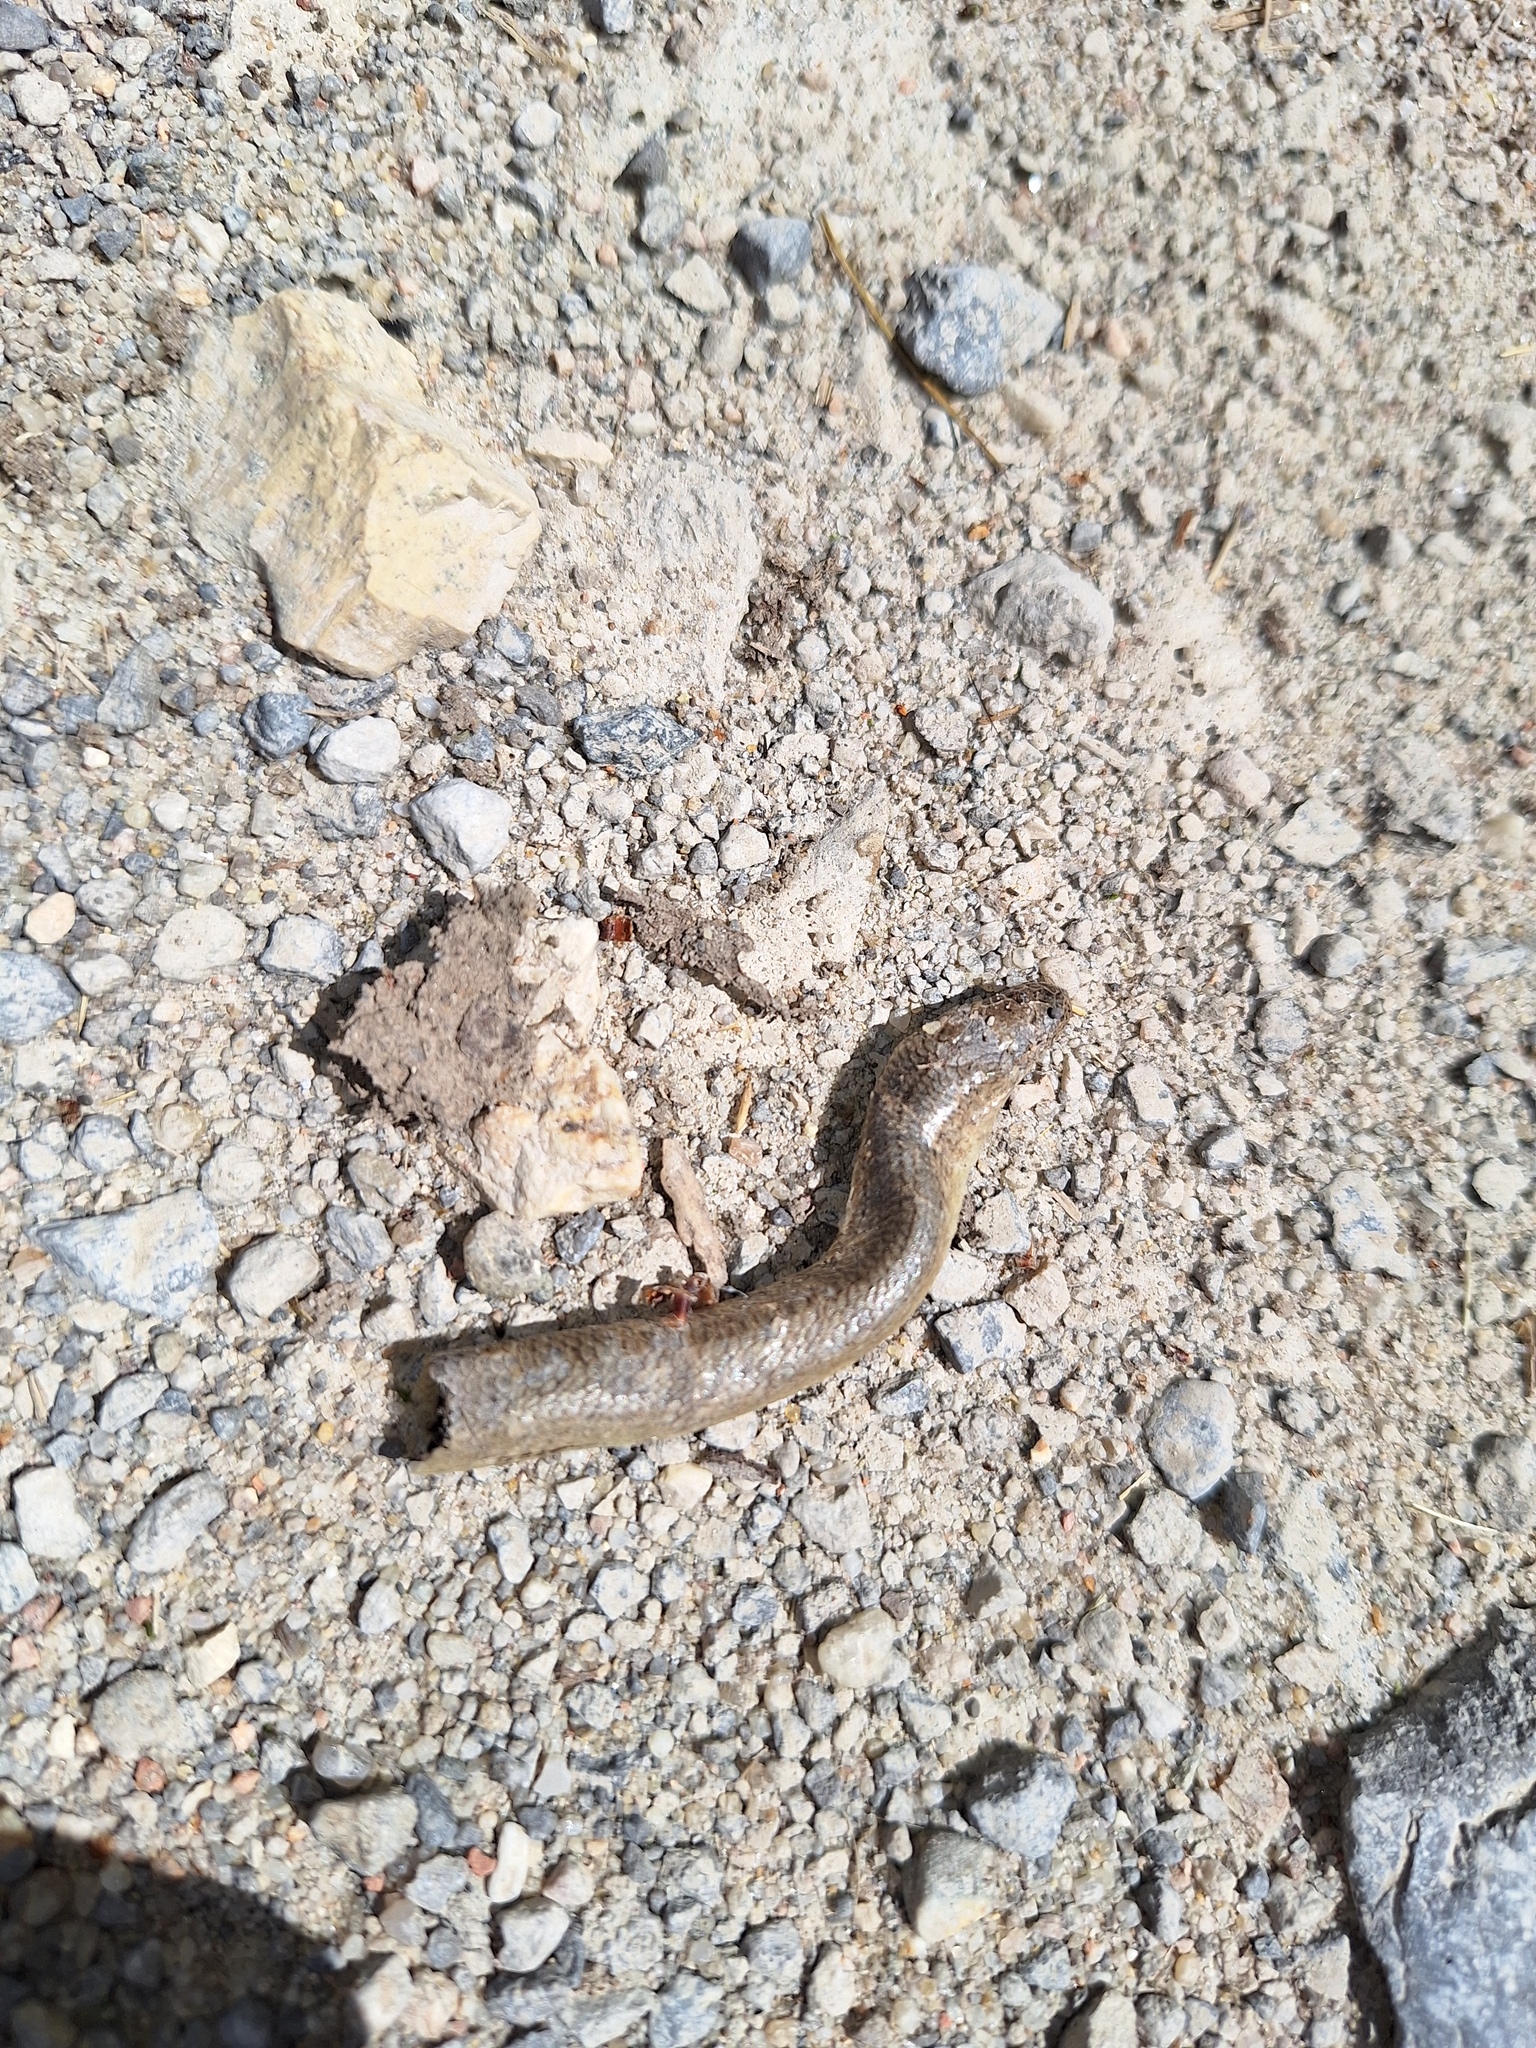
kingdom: Animalia
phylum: Chordata
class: Squamata
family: Anguidae
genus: Anguis
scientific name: Anguis fragilis
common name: Slow worm
